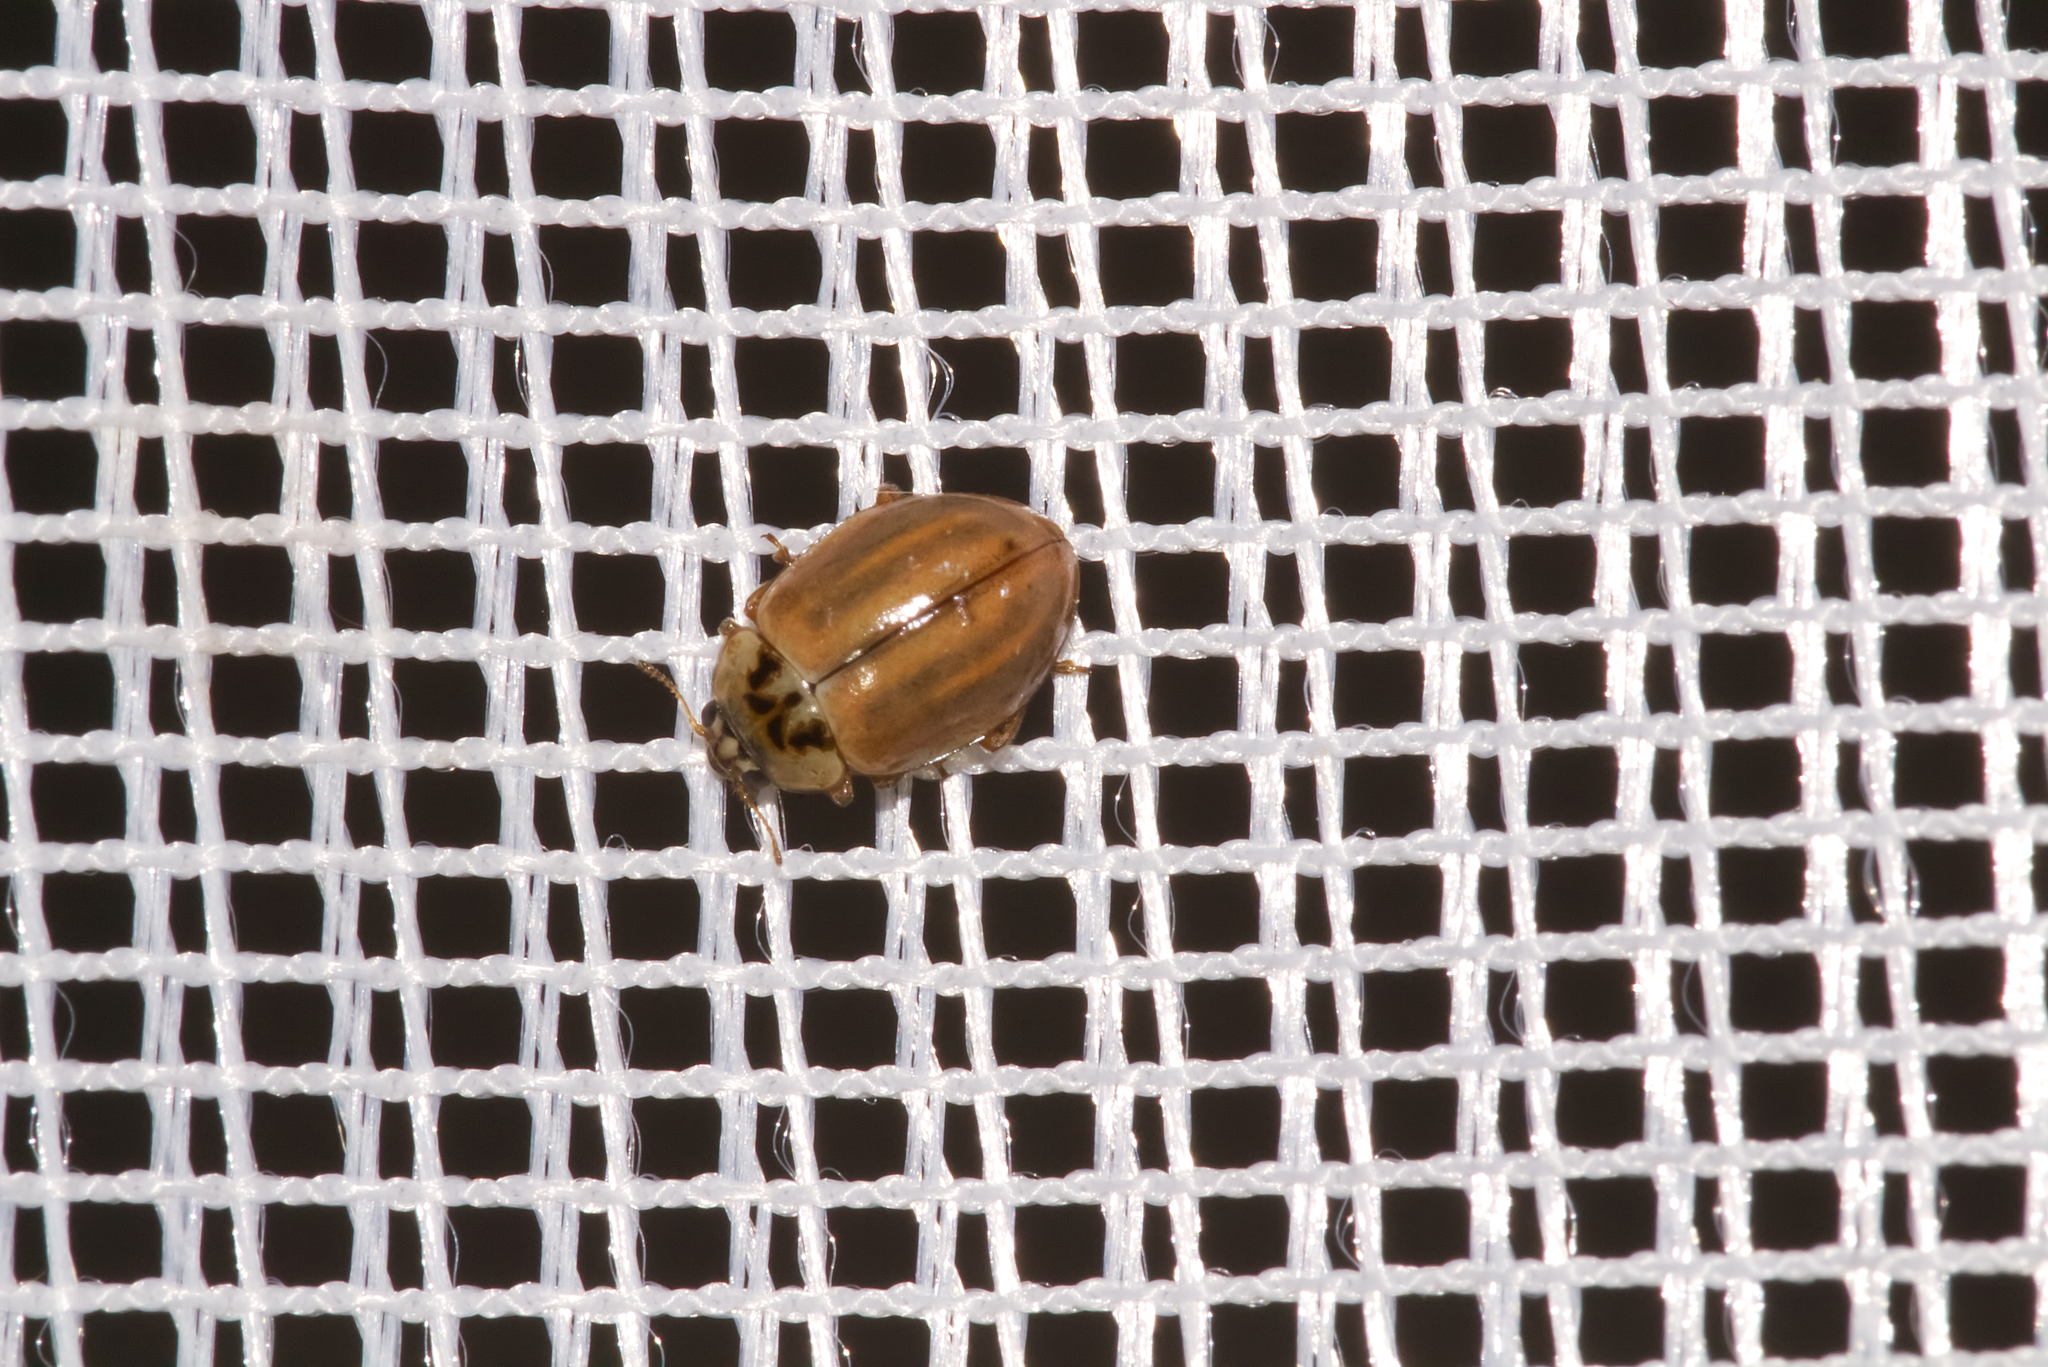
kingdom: Animalia
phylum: Arthropoda
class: Insecta
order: Coleoptera
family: Coccinellidae
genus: Aphidecta
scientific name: Aphidecta obliterata
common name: Larch ladybird
